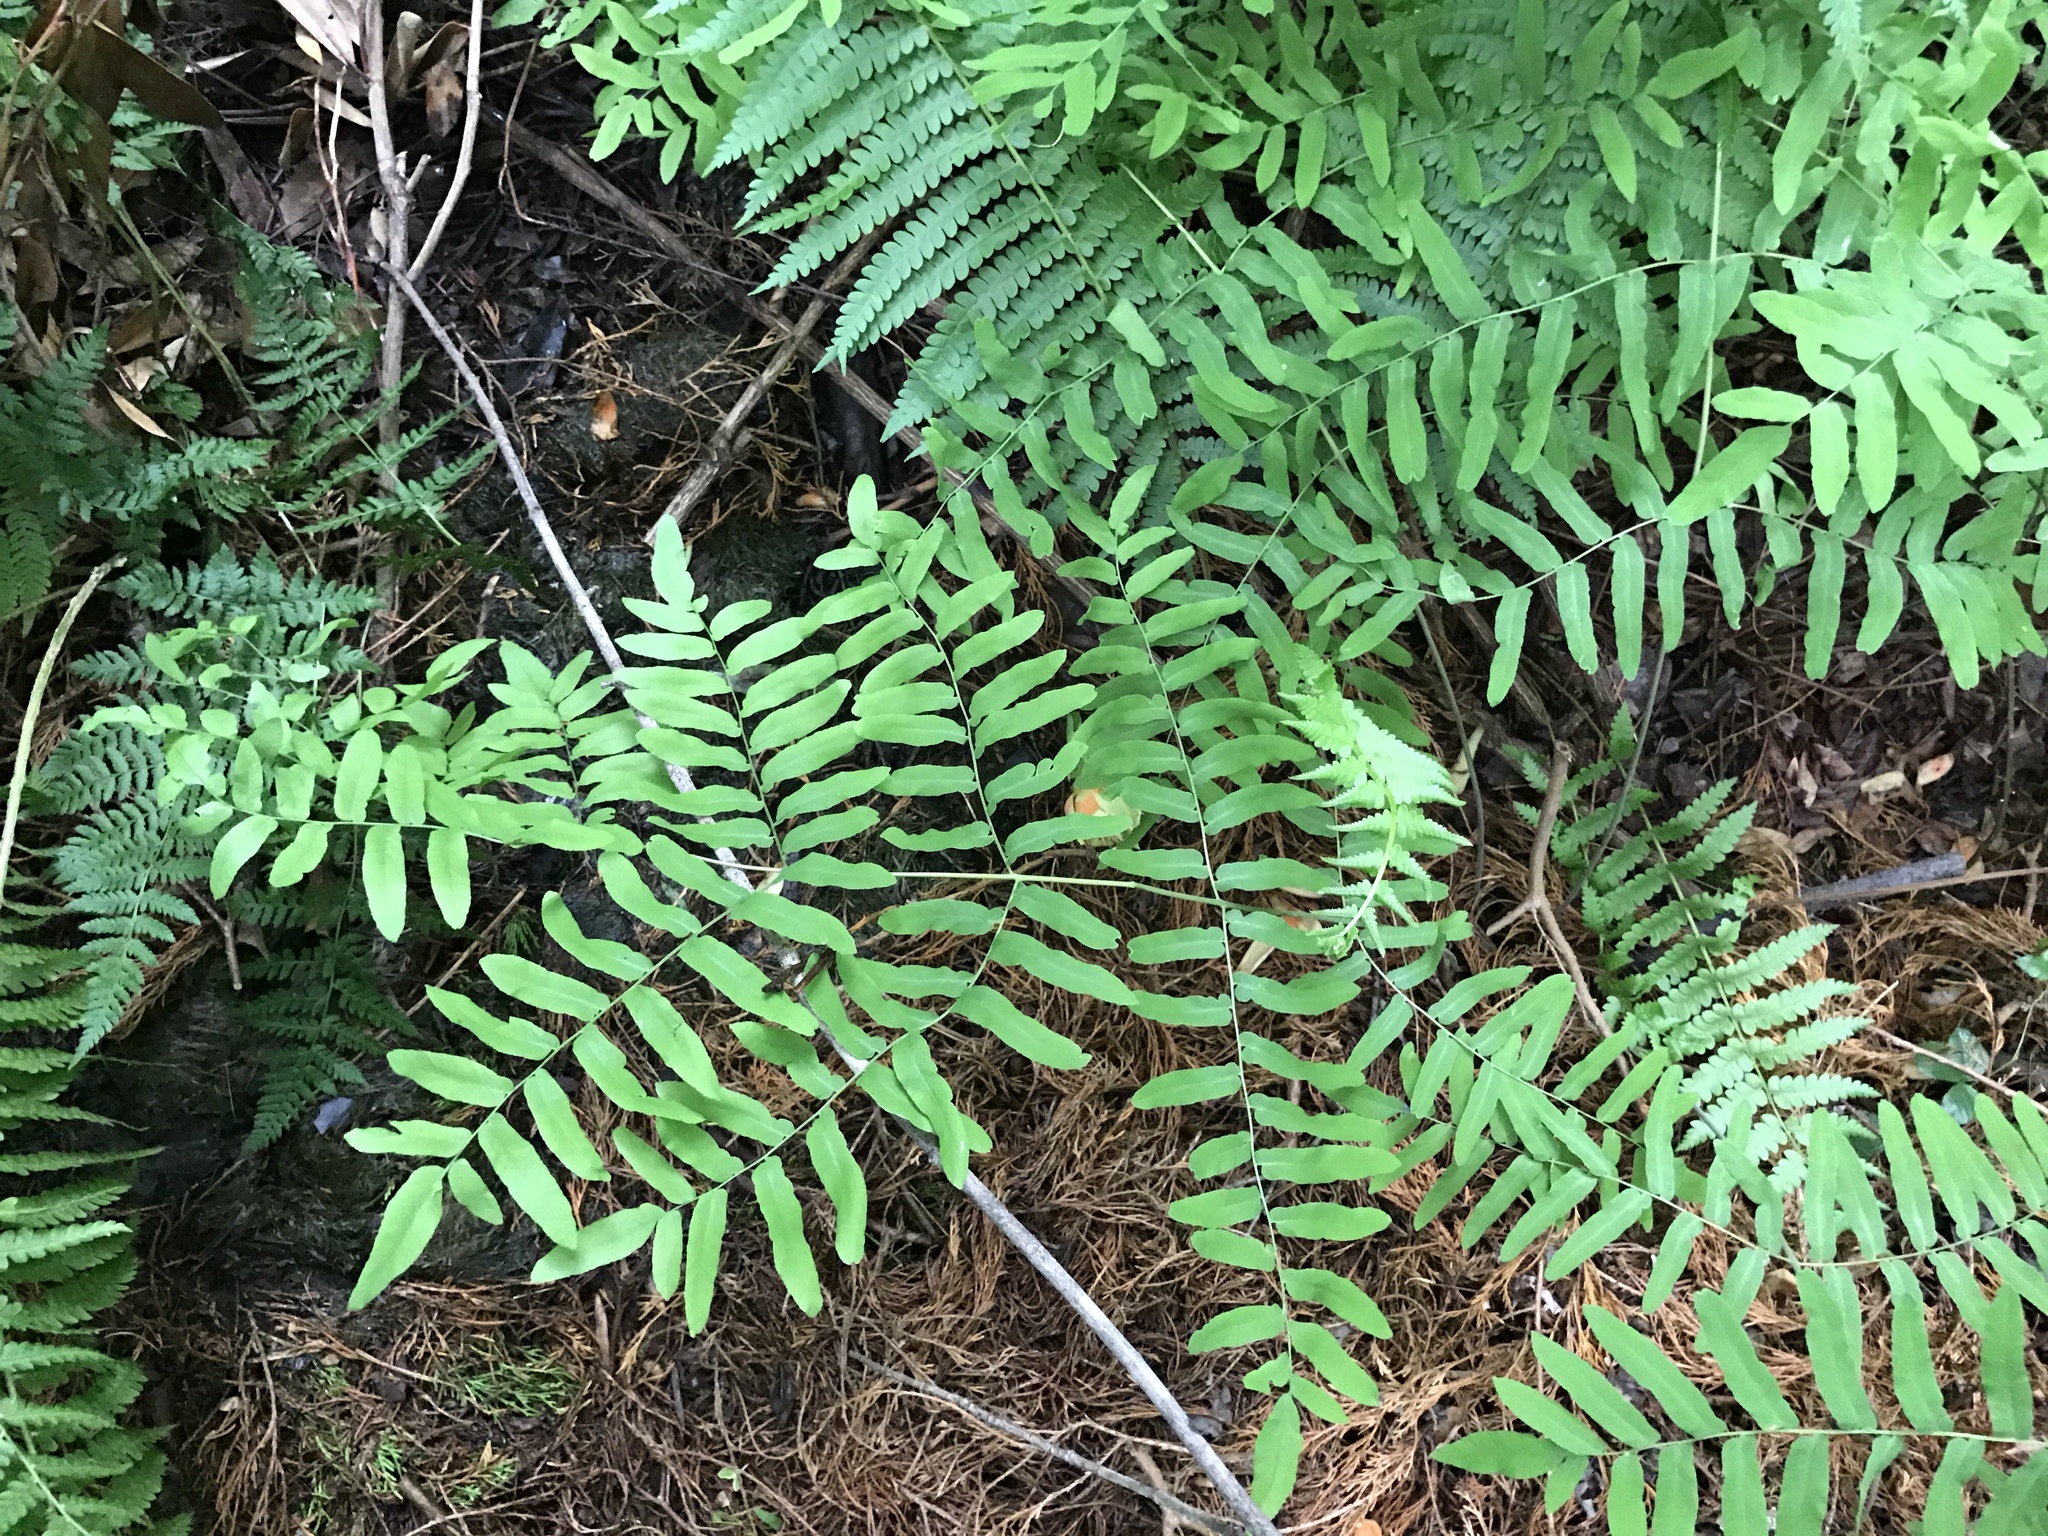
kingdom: Plantae
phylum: Tracheophyta
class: Polypodiopsida
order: Osmundales
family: Osmundaceae
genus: Osmunda
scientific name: Osmunda spectabilis
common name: American royal fern
